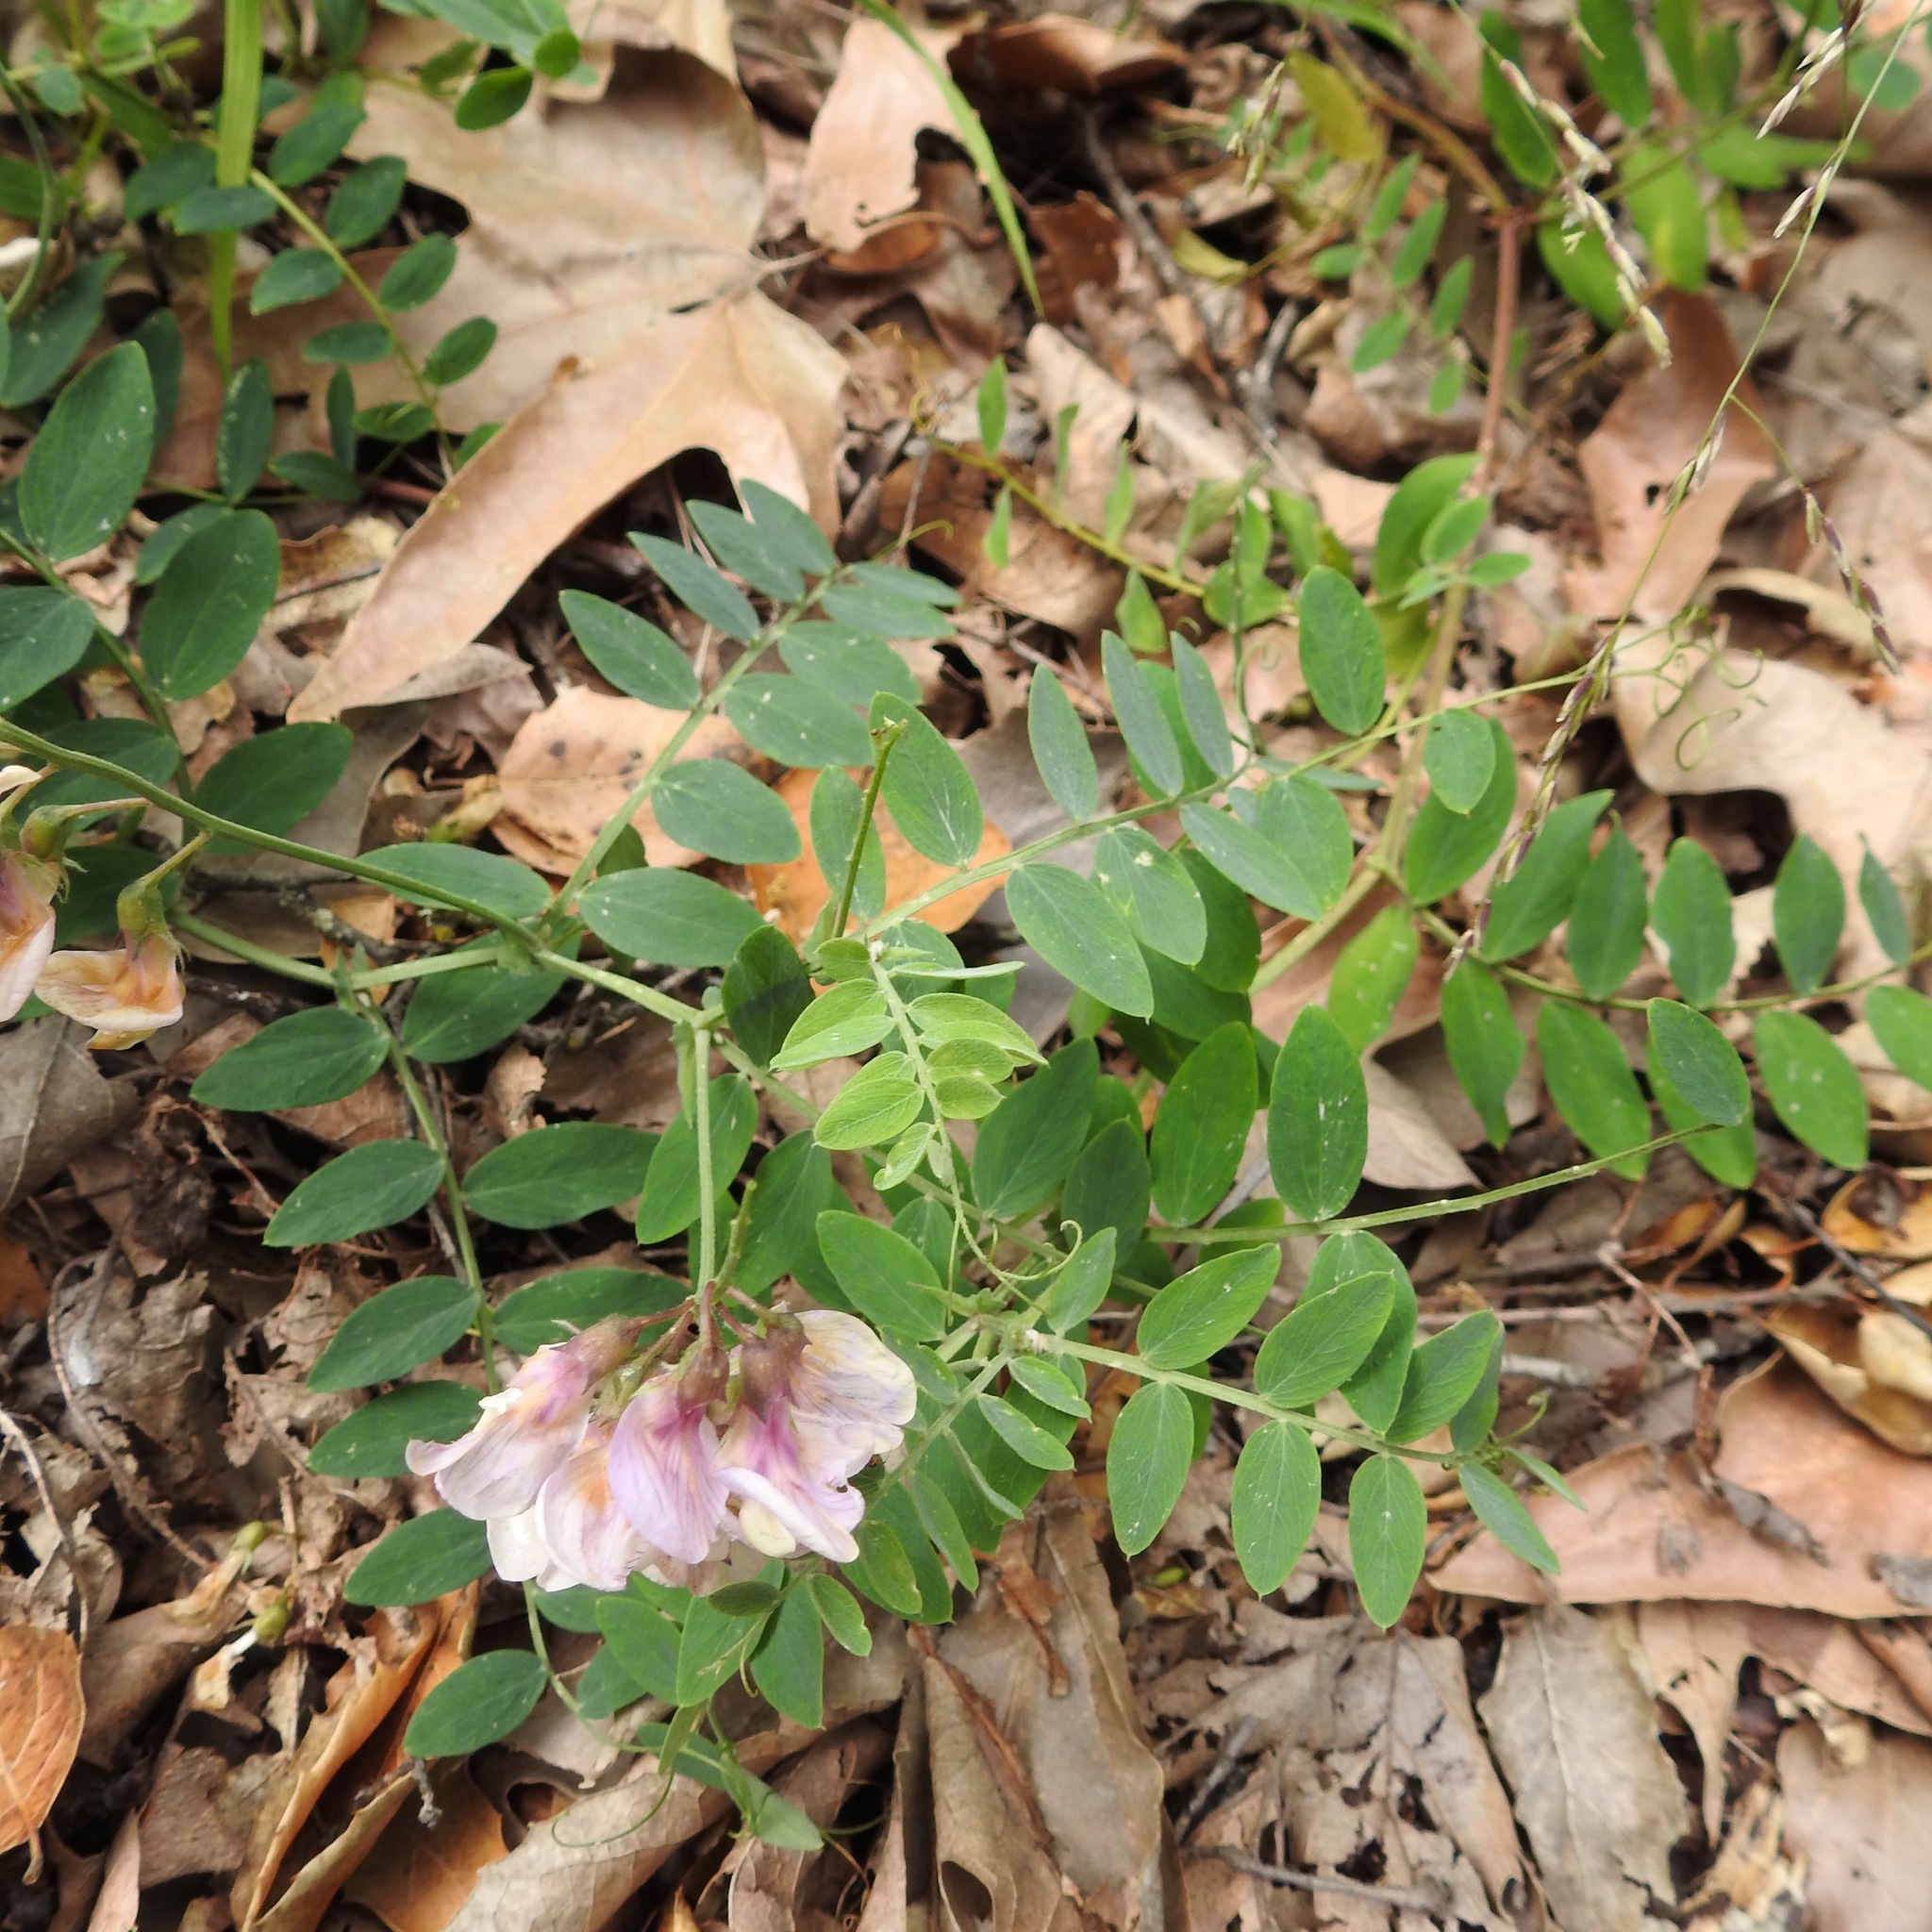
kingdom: Plantae
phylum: Tracheophyta
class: Magnoliopsida
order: Fabales
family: Fabaceae
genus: Lathyrus
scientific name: Lathyrus vestitus
